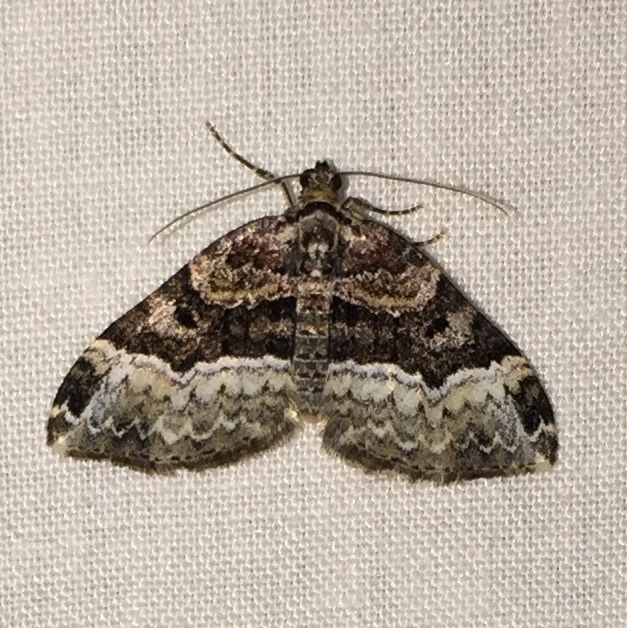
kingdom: Animalia
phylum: Arthropoda
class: Insecta
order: Lepidoptera
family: Geometridae
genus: Xanthorhoe
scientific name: Xanthorhoe lacustrata
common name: Toothed brown carpet
